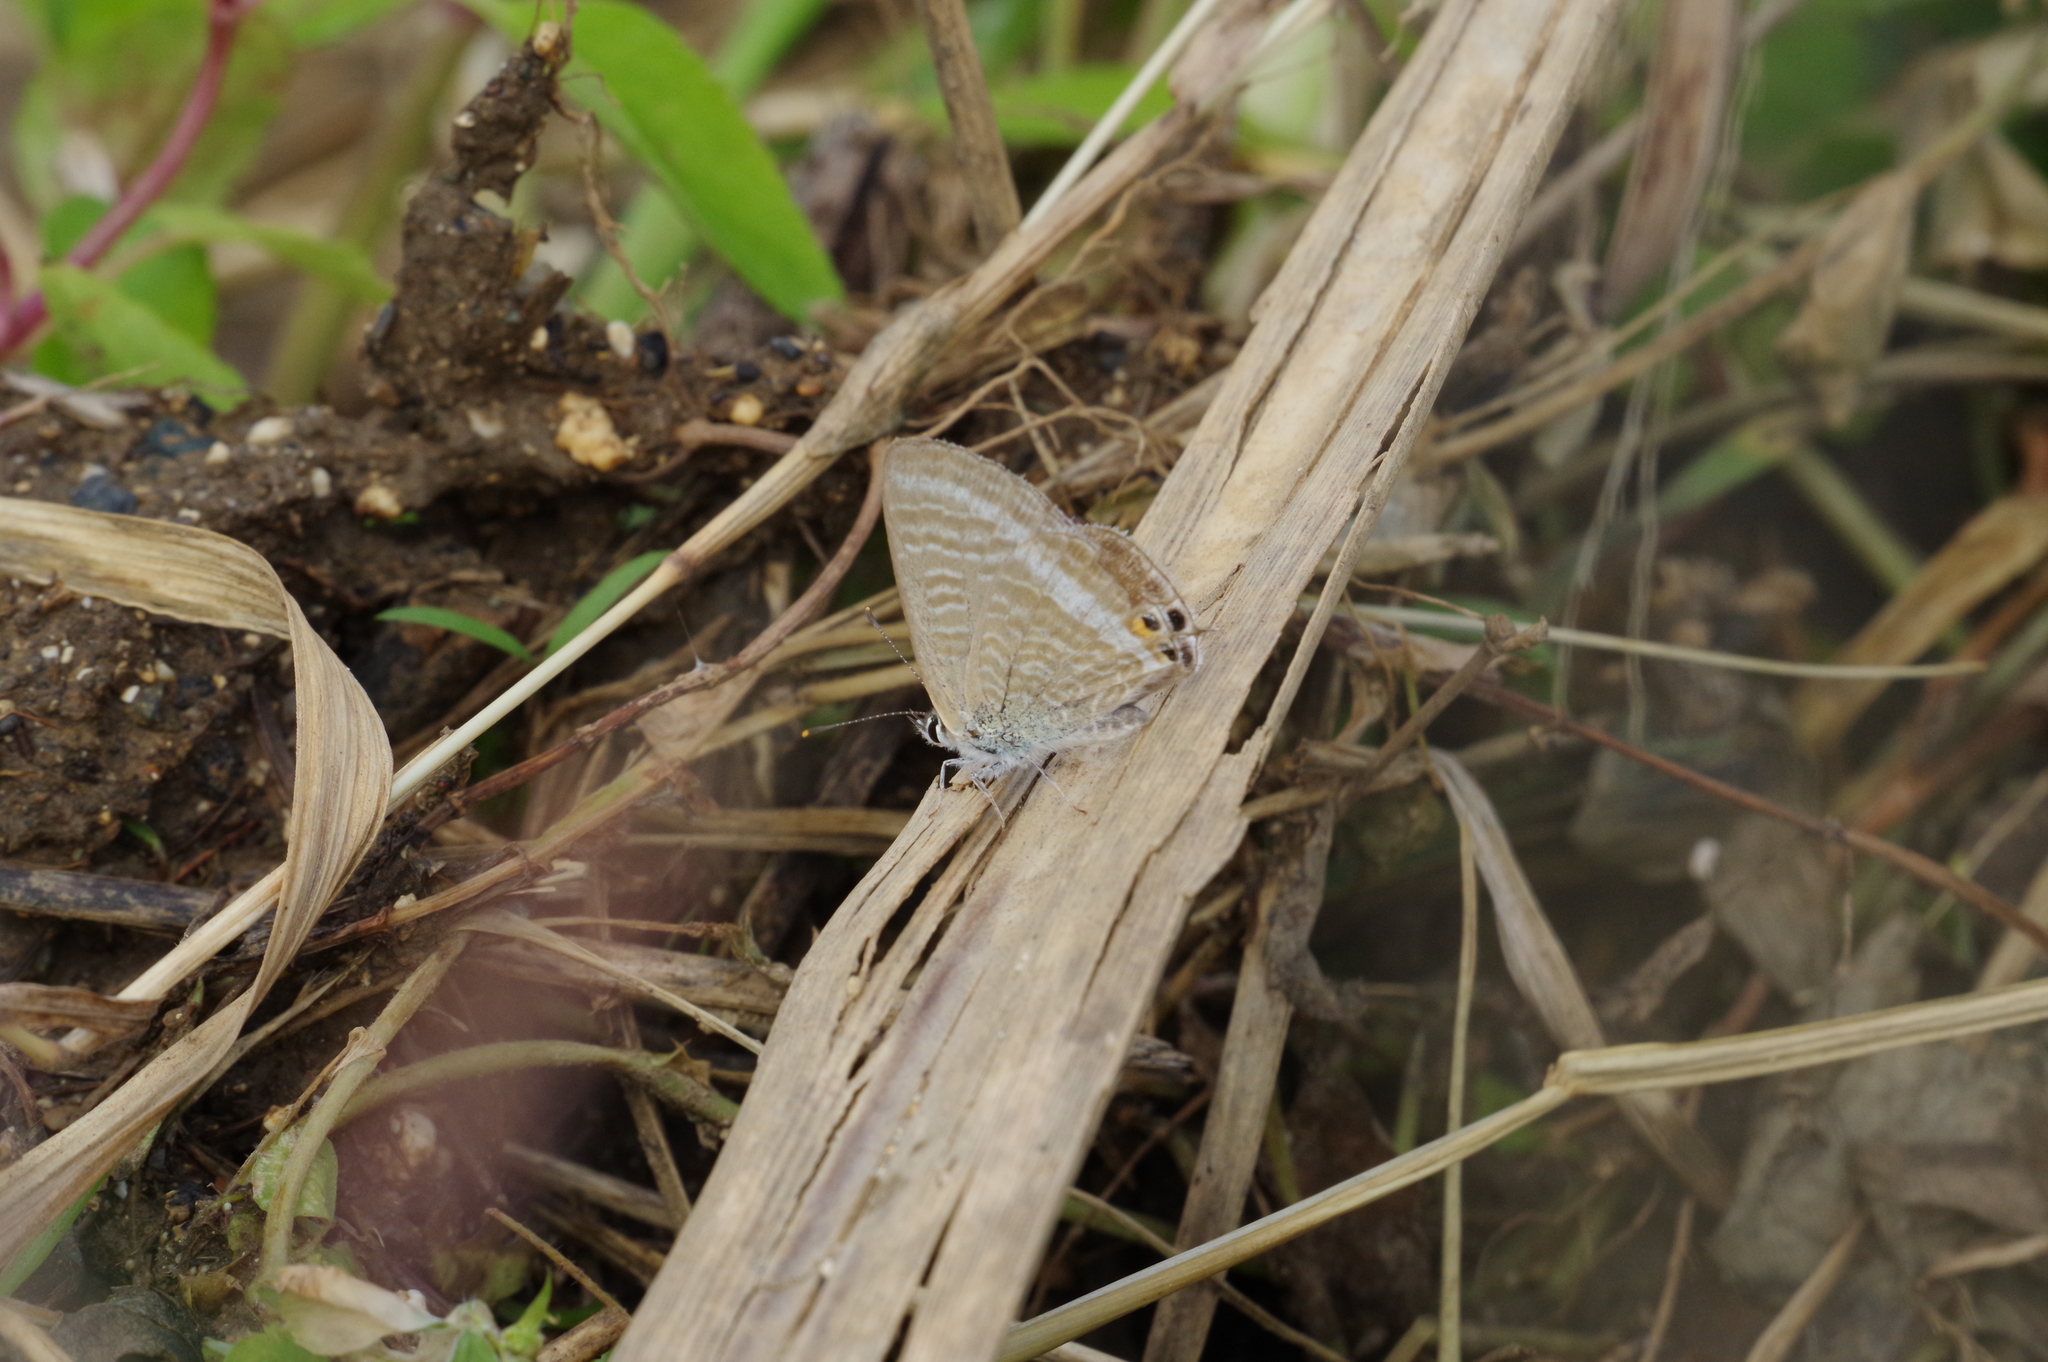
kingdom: Animalia
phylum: Arthropoda
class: Insecta
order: Lepidoptera
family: Lycaenidae
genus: Lampides
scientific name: Lampides boeticus
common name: Long-tailed blue
